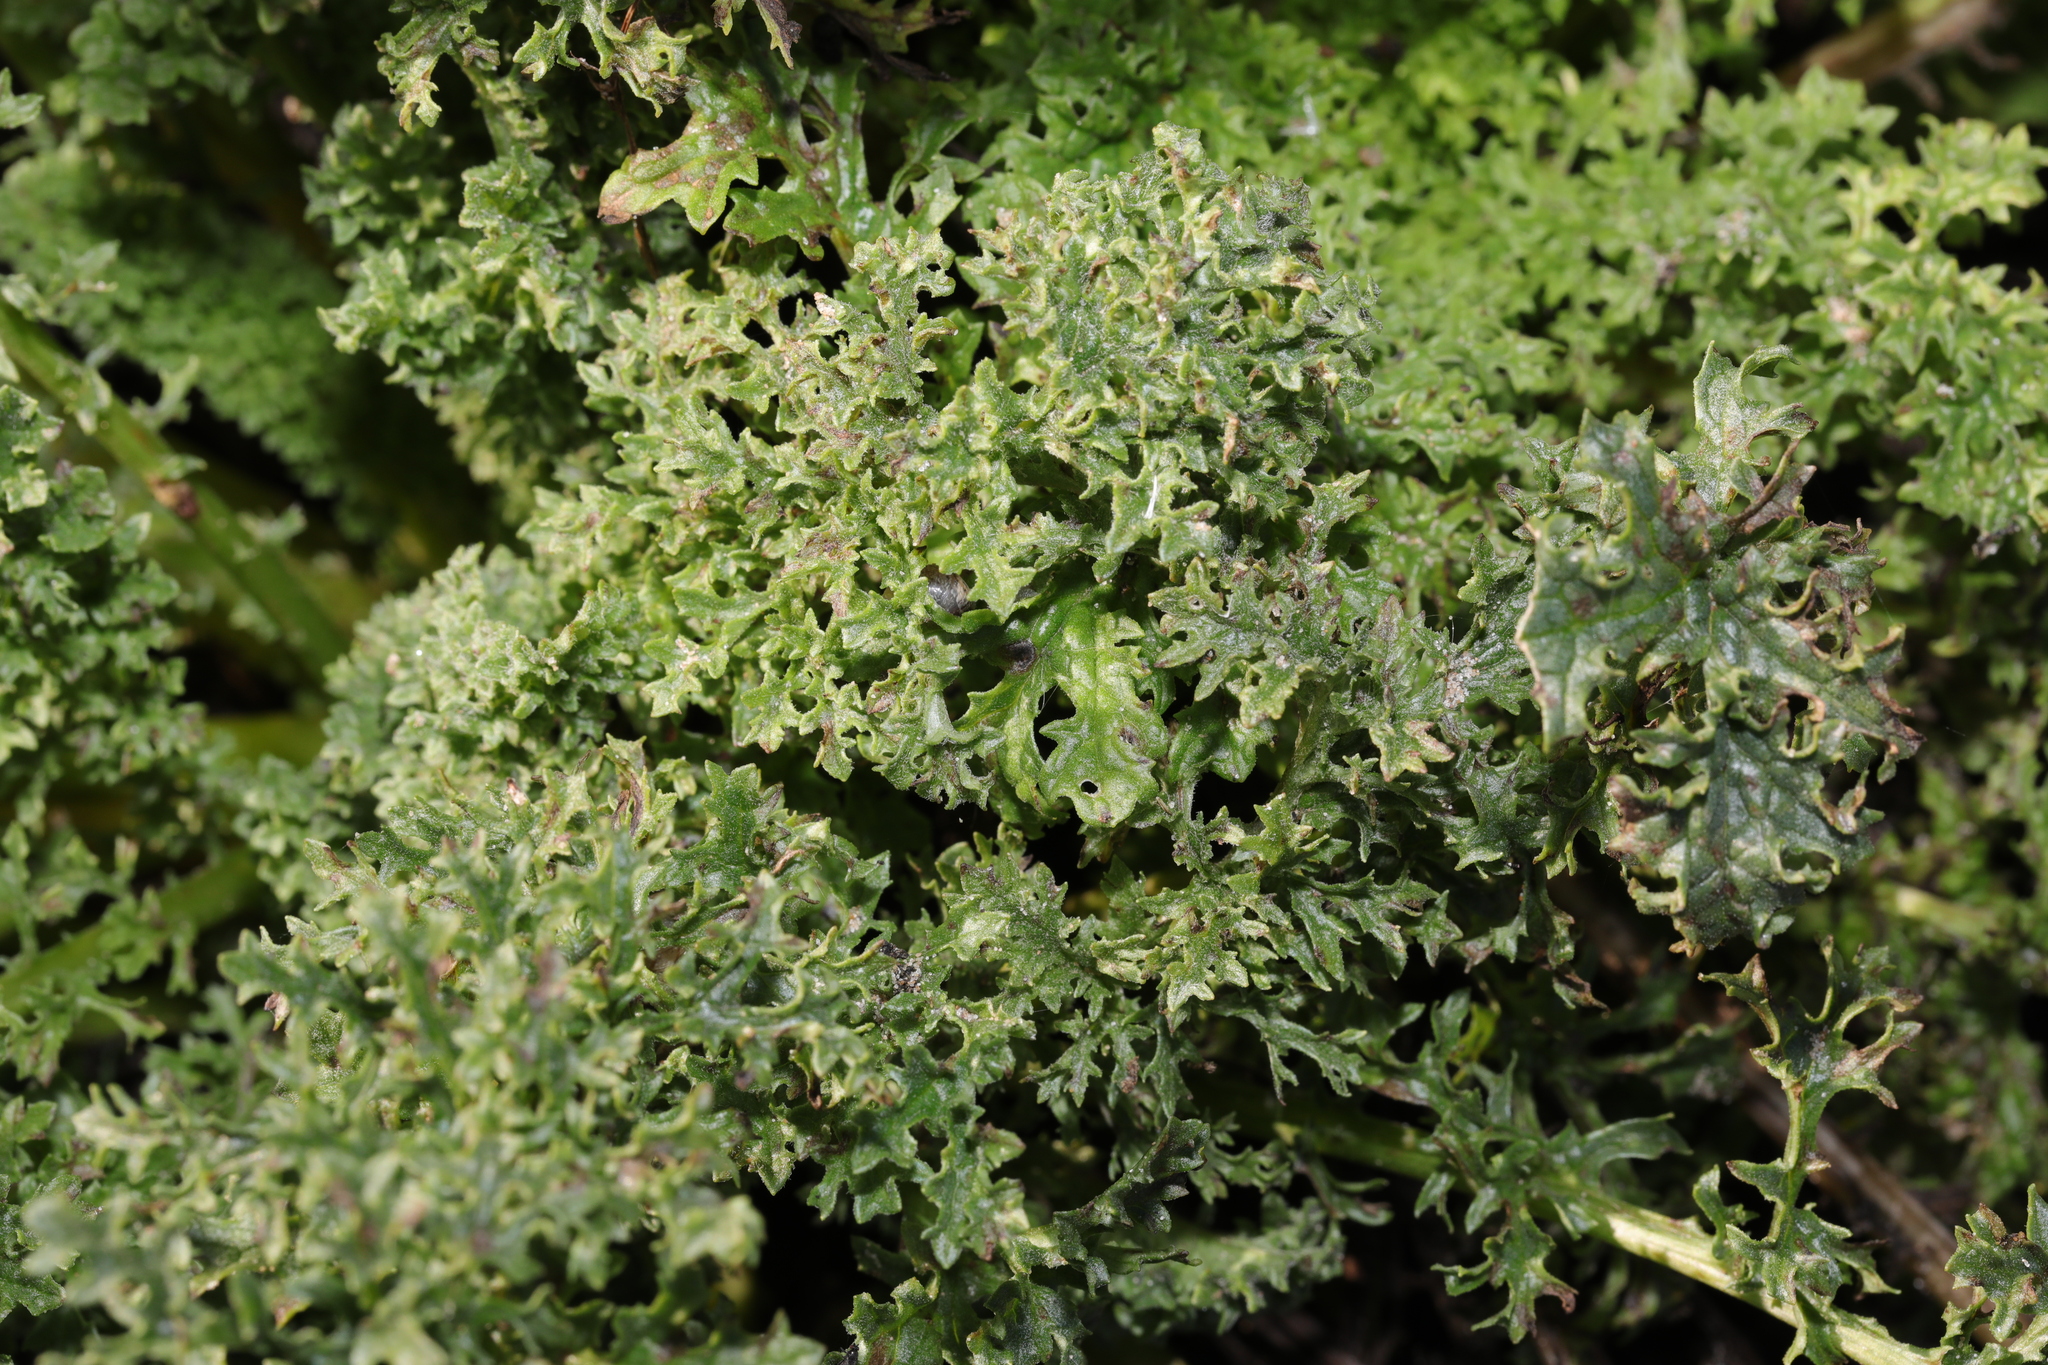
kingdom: Plantae
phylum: Tracheophyta
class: Magnoliopsida
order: Asterales
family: Asteraceae
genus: Jacobaea
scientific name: Jacobaea vulgaris
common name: Stinking willie
